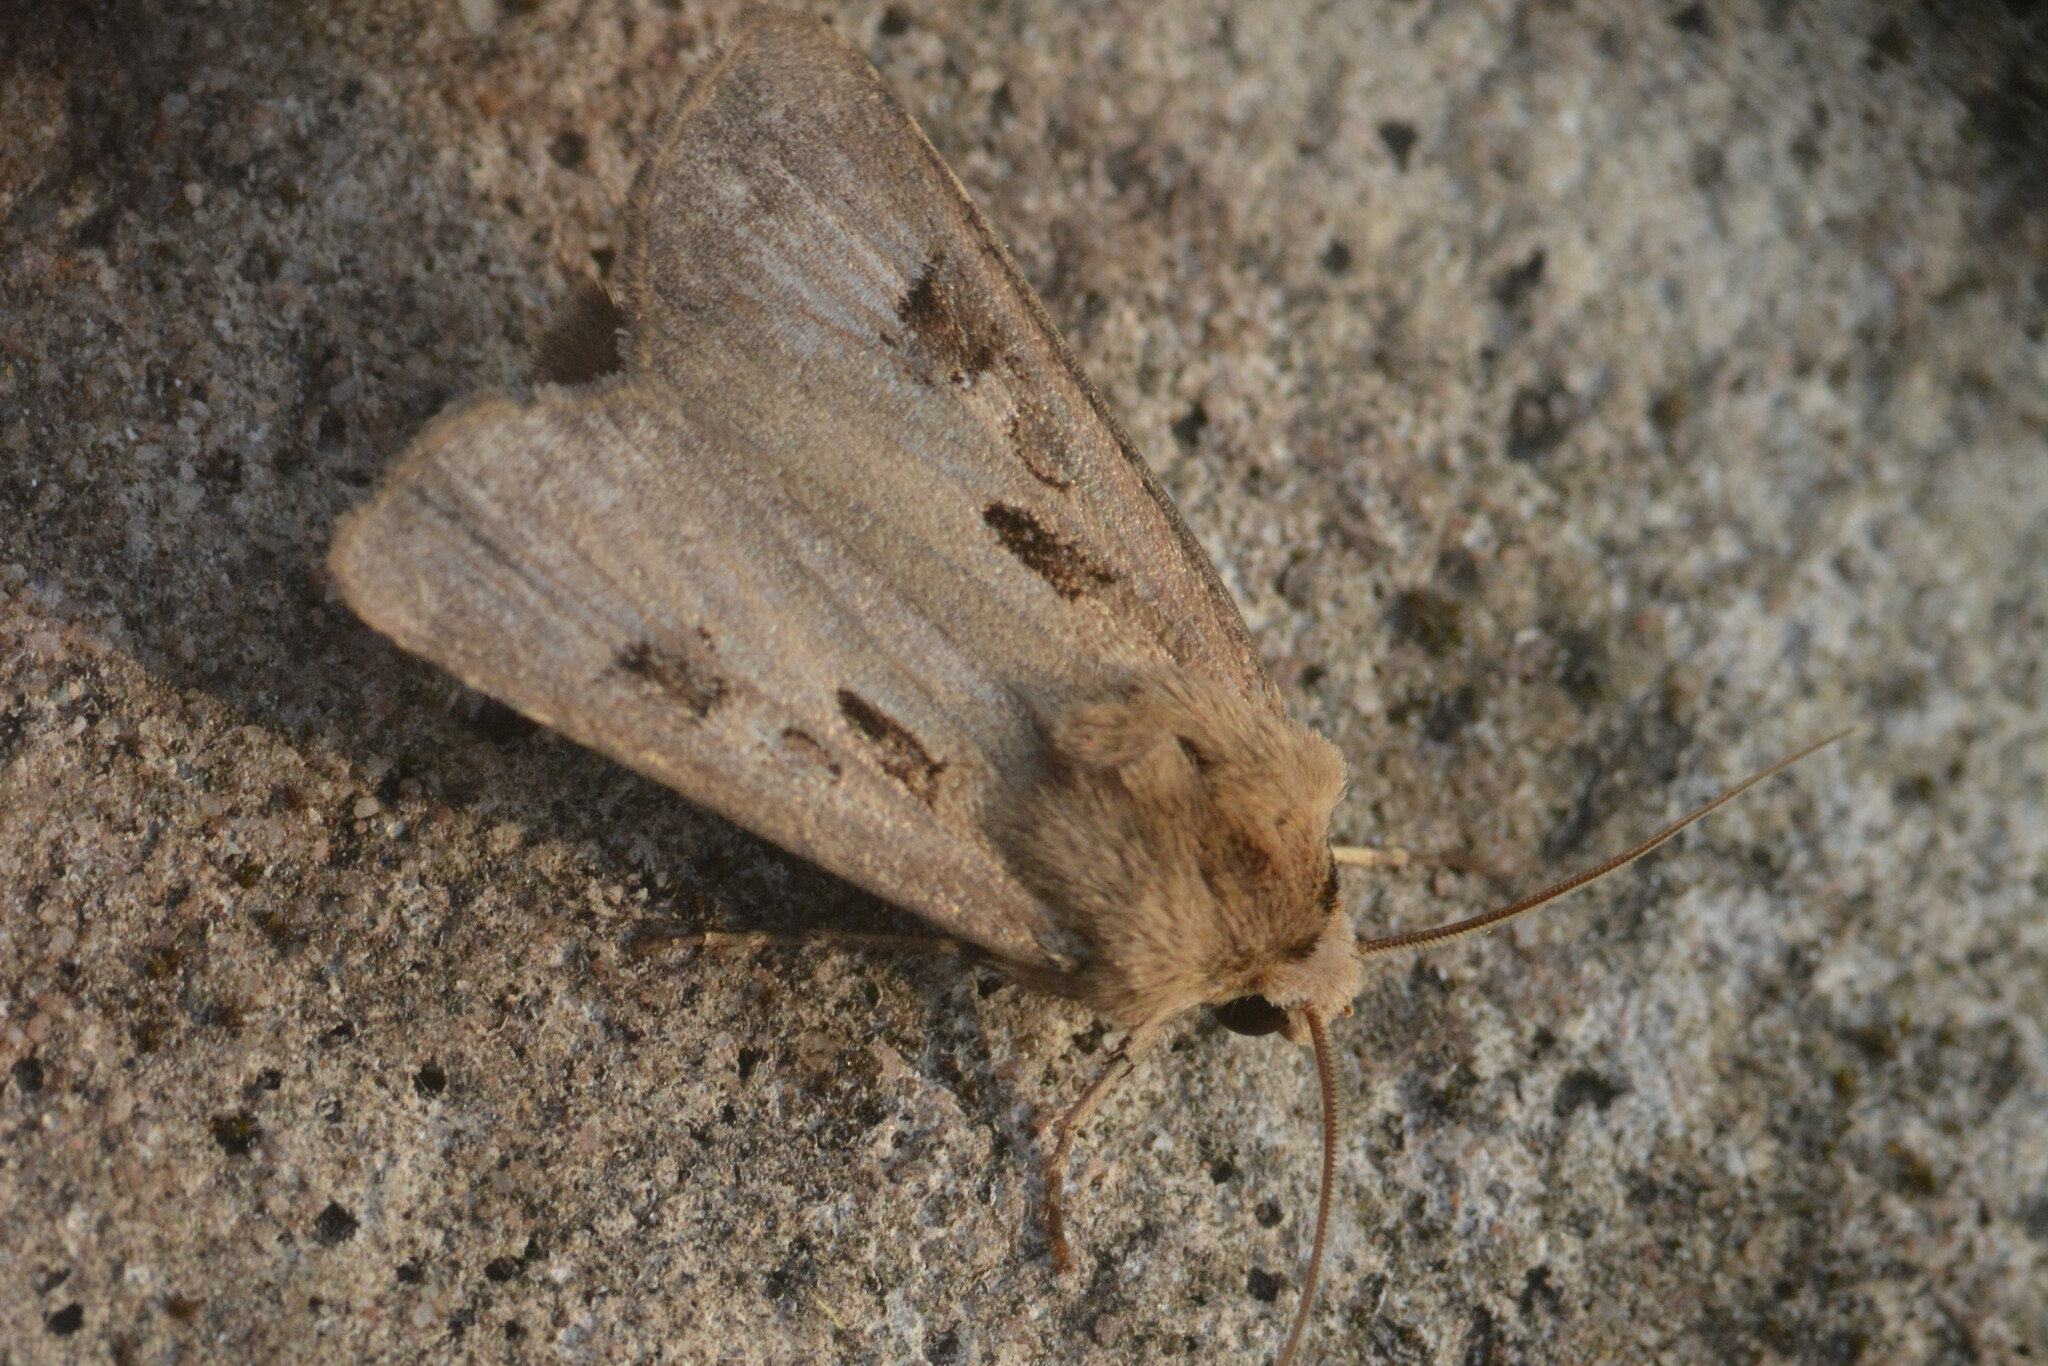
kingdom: Animalia
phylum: Arthropoda
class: Insecta
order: Lepidoptera
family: Noctuidae
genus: Agrotis
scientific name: Agrotis exclamationis
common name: Heart and dart
